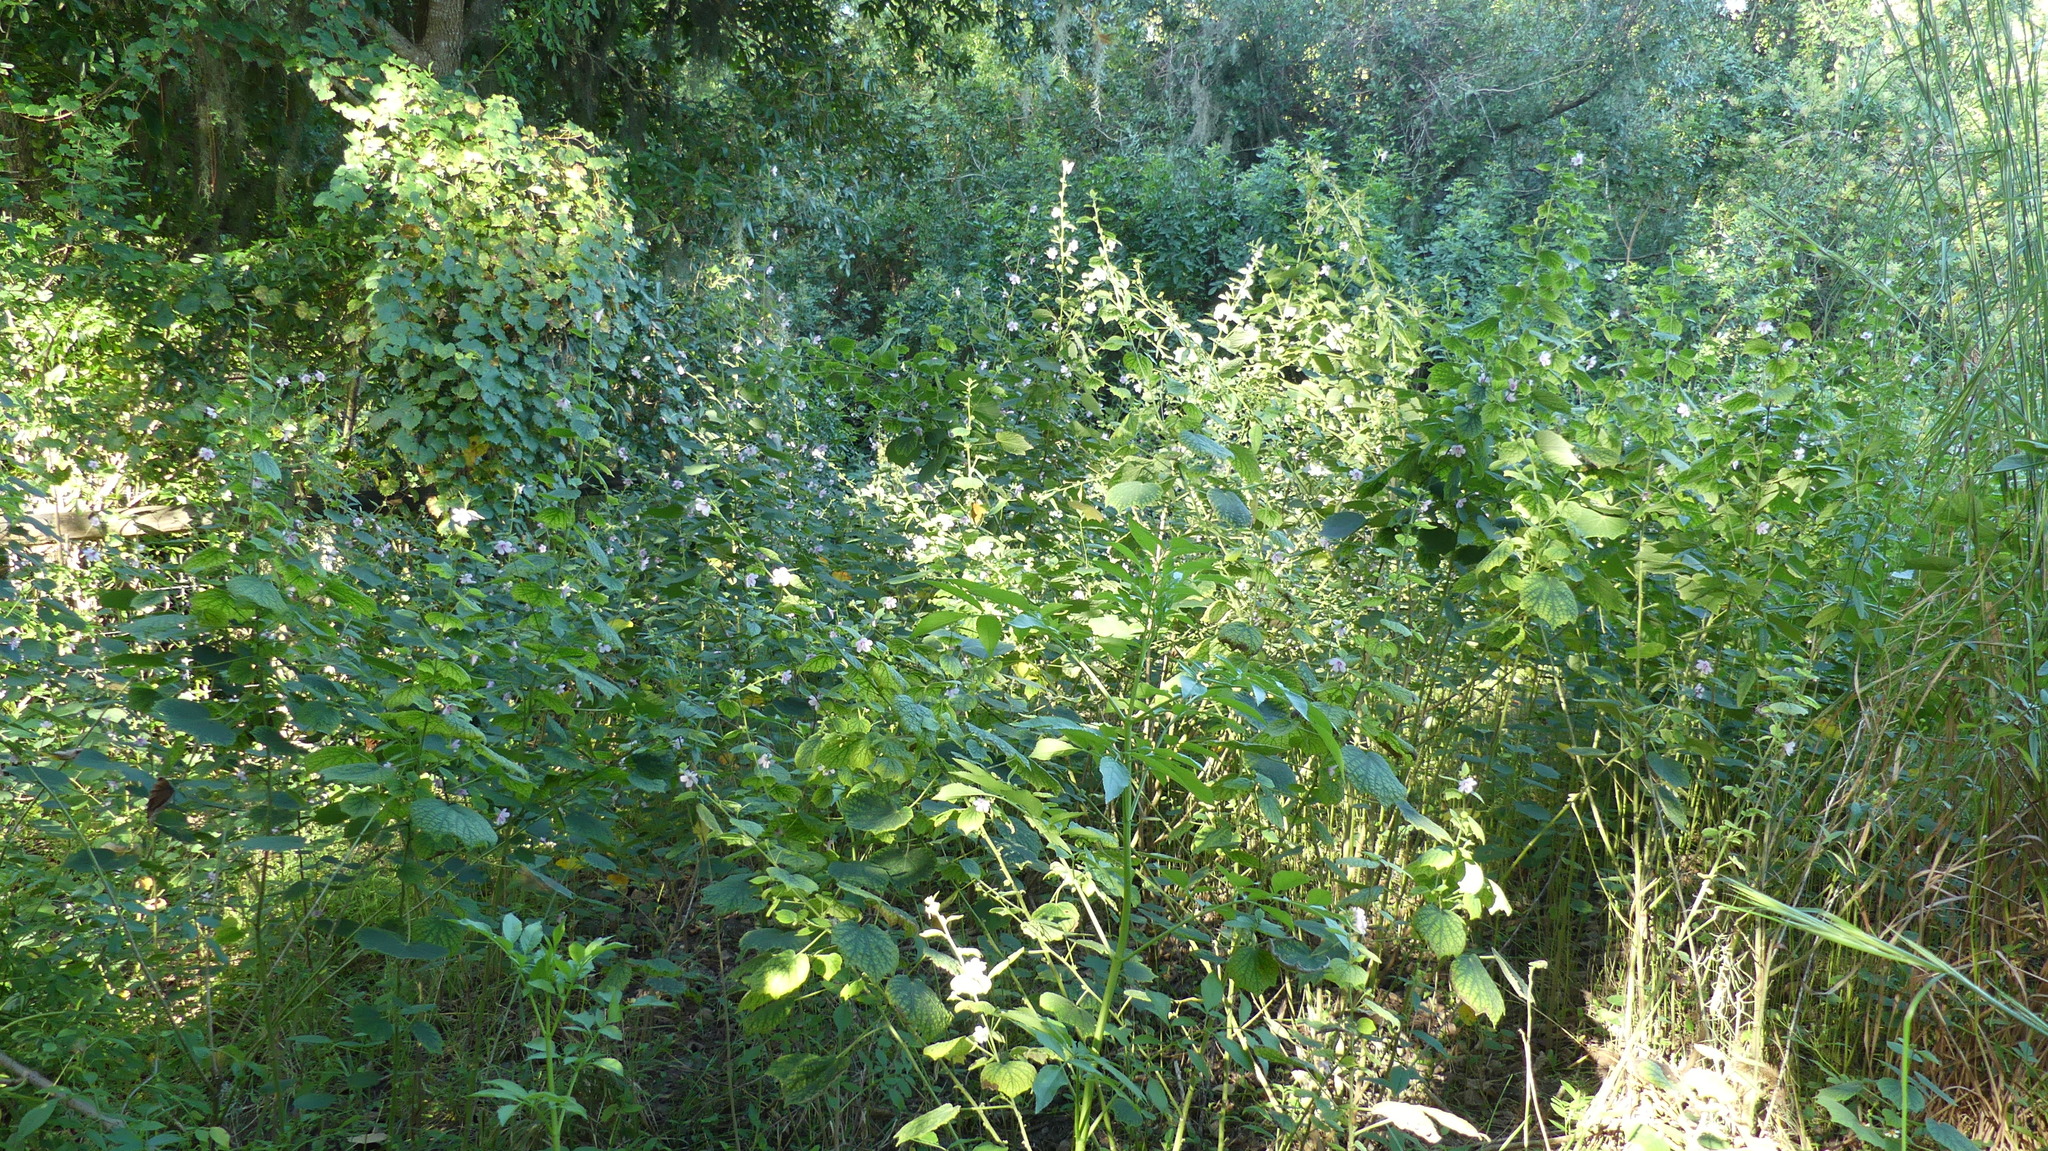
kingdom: Plantae
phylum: Tracheophyta
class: Magnoliopsida
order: Malvales
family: Malvaceae
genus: Urena
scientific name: Urena lobata
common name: Caesarweed
